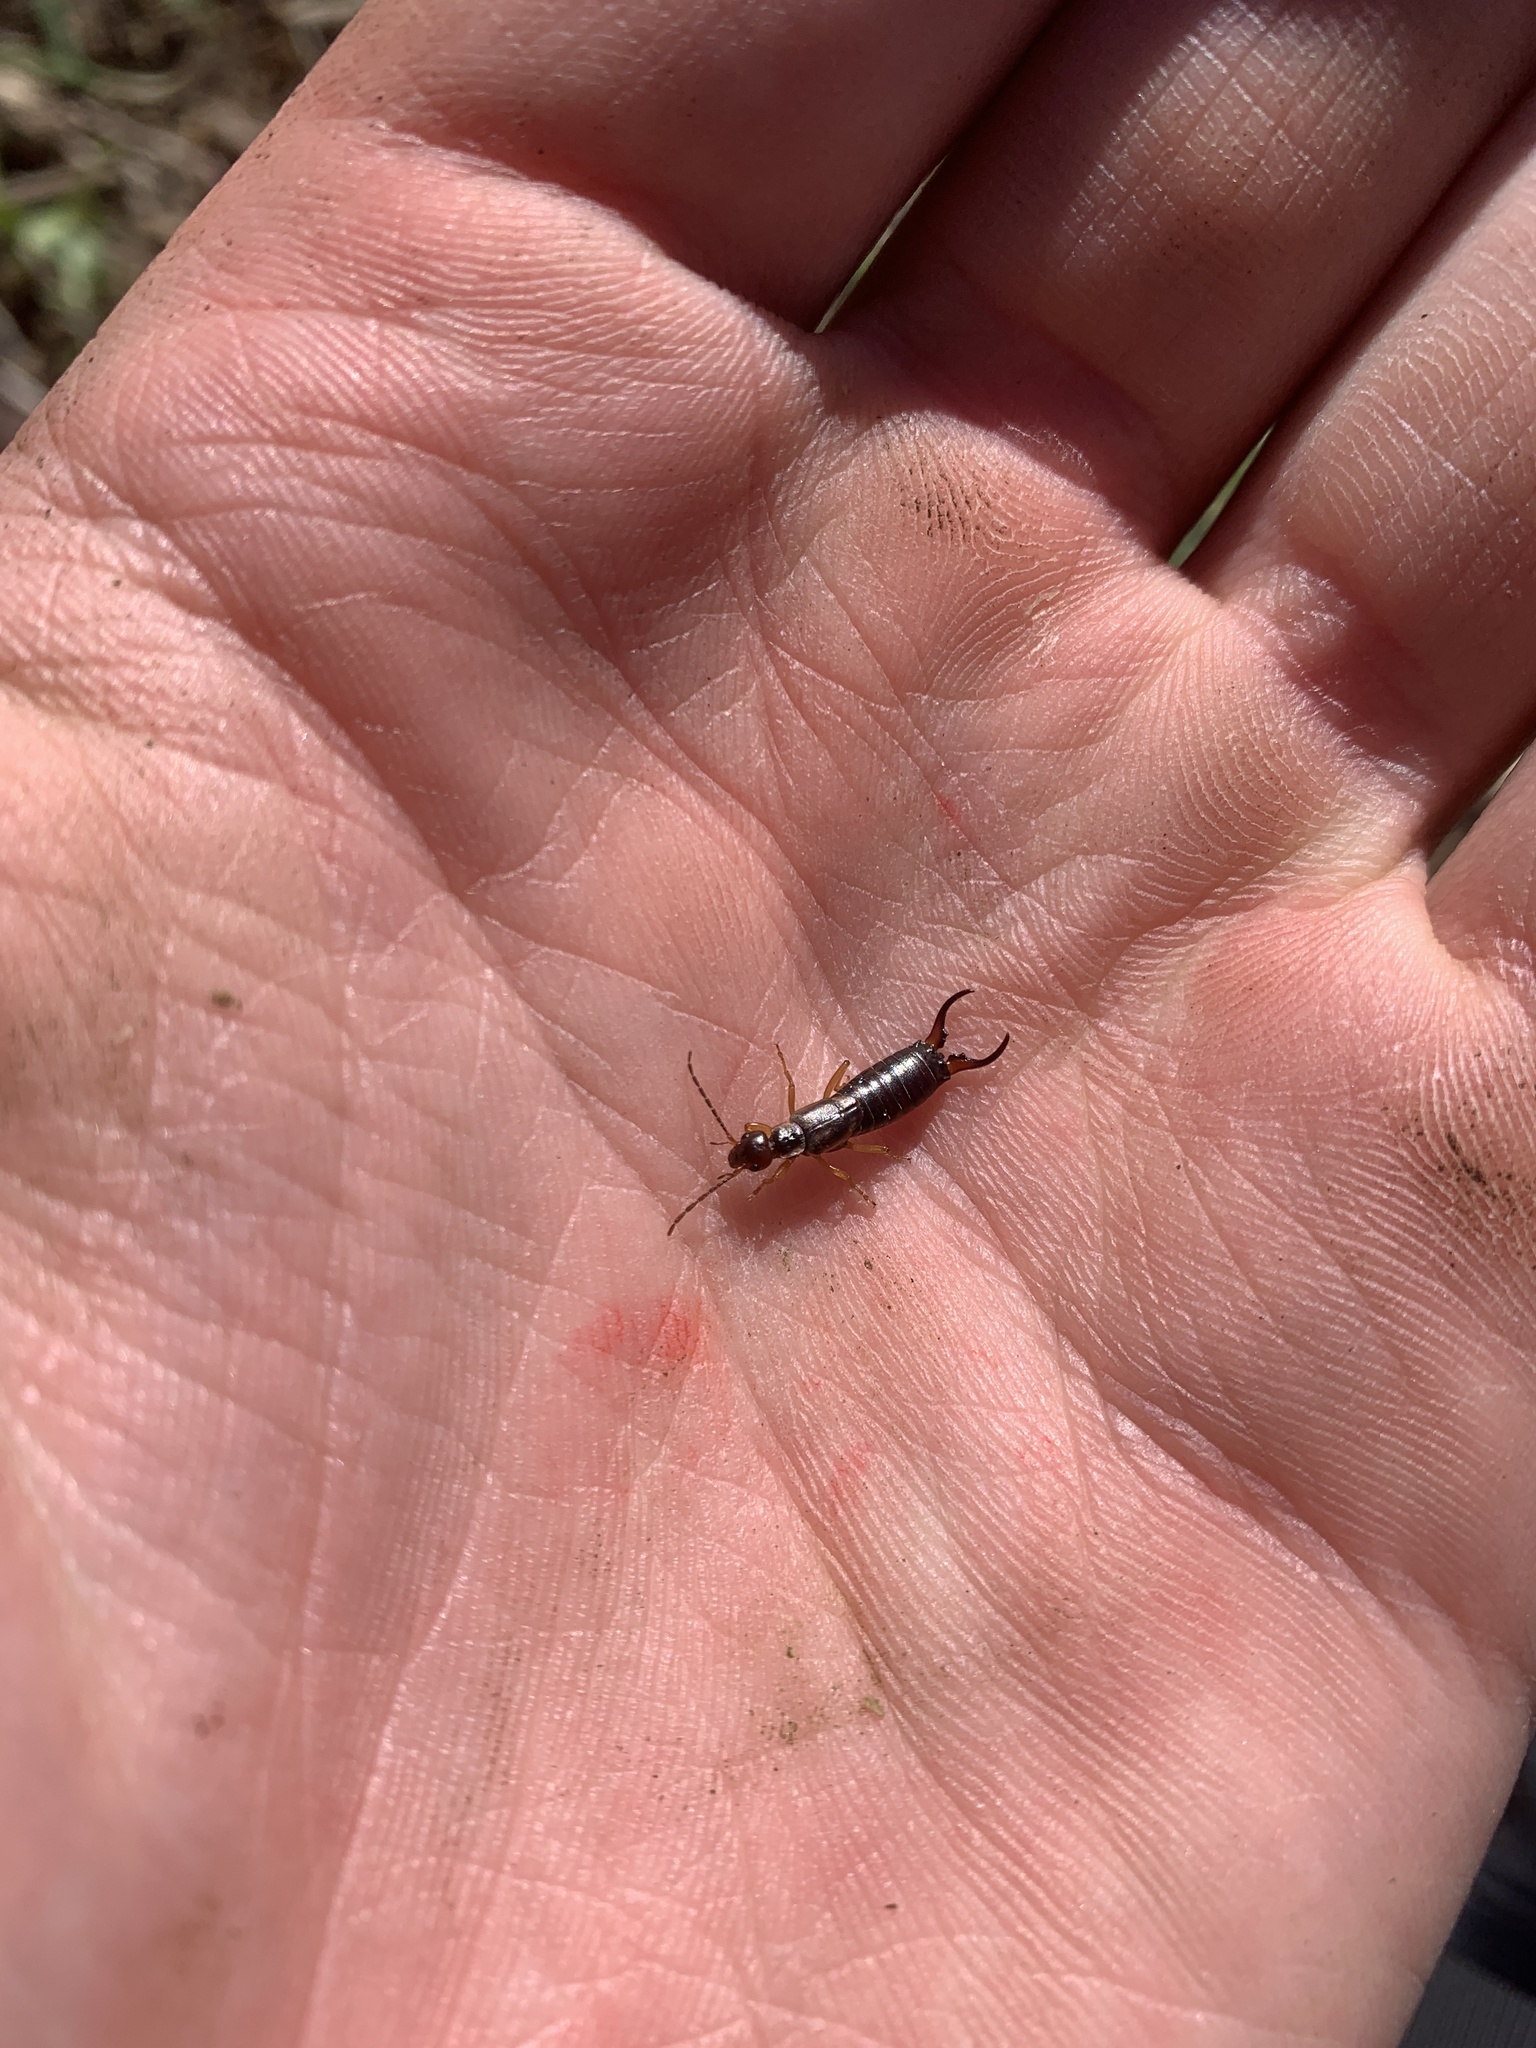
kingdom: Animalia
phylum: Arthropoda
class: Insecta
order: Dermaptera
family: Forficulidae
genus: Forficula
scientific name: Forficula dentata
